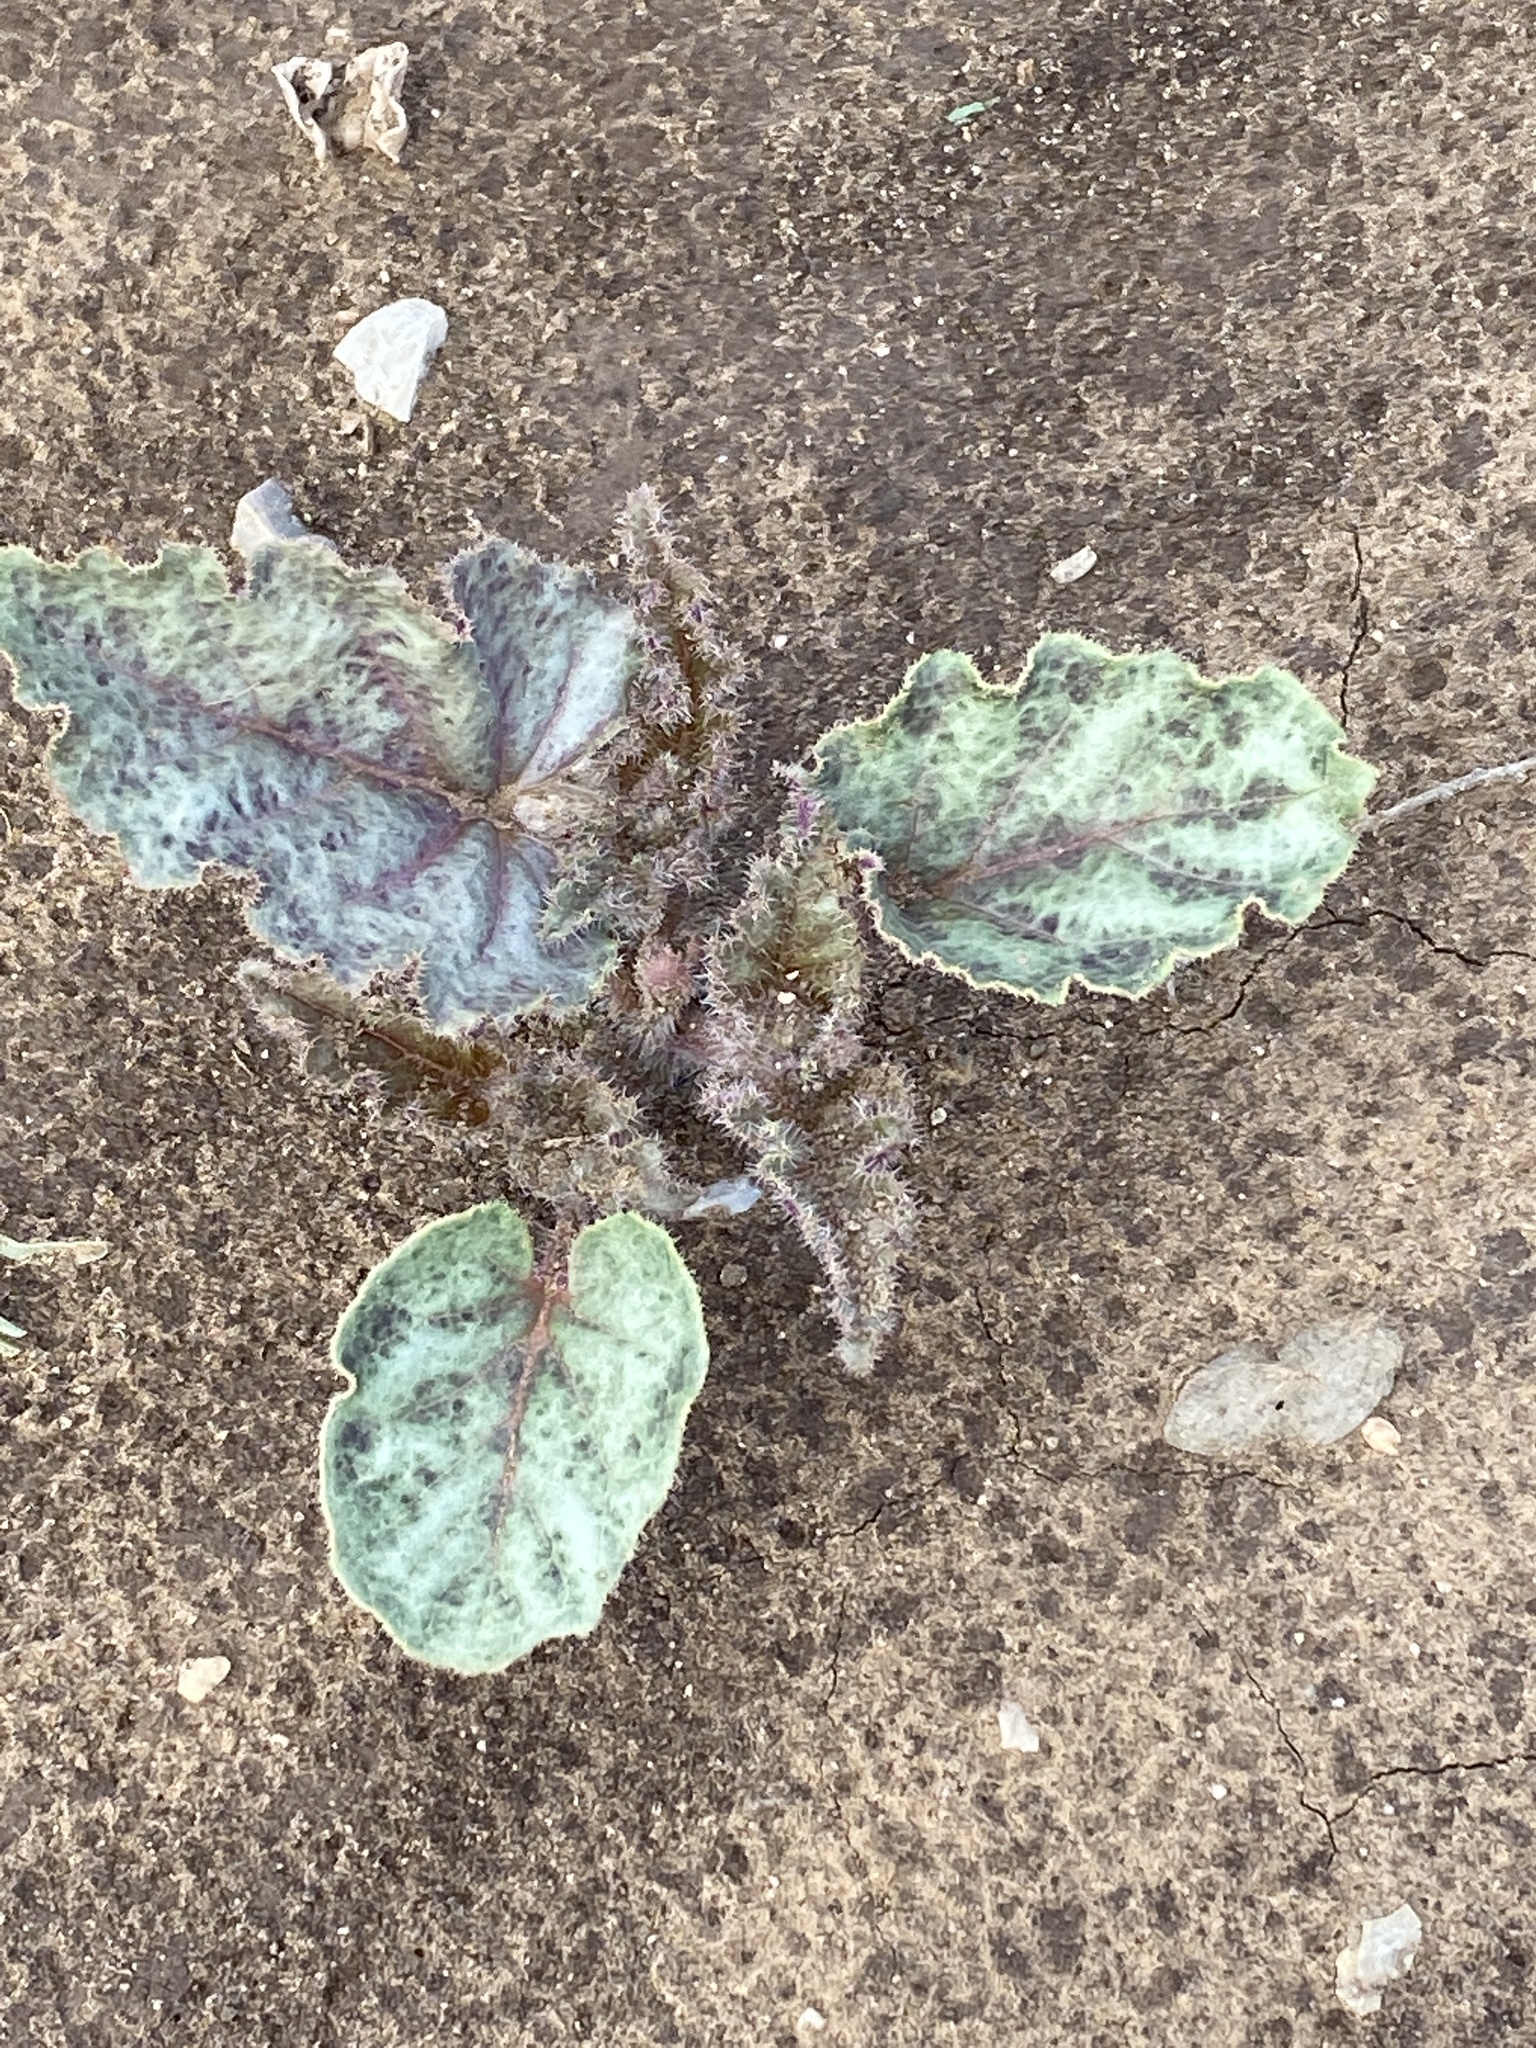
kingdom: Plantae
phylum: Tracheophyta
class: Magnoliopsida
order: Caryophyllales
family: Nyctaginaceae
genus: Nyctaginia
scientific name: Nyctaginia capitata
